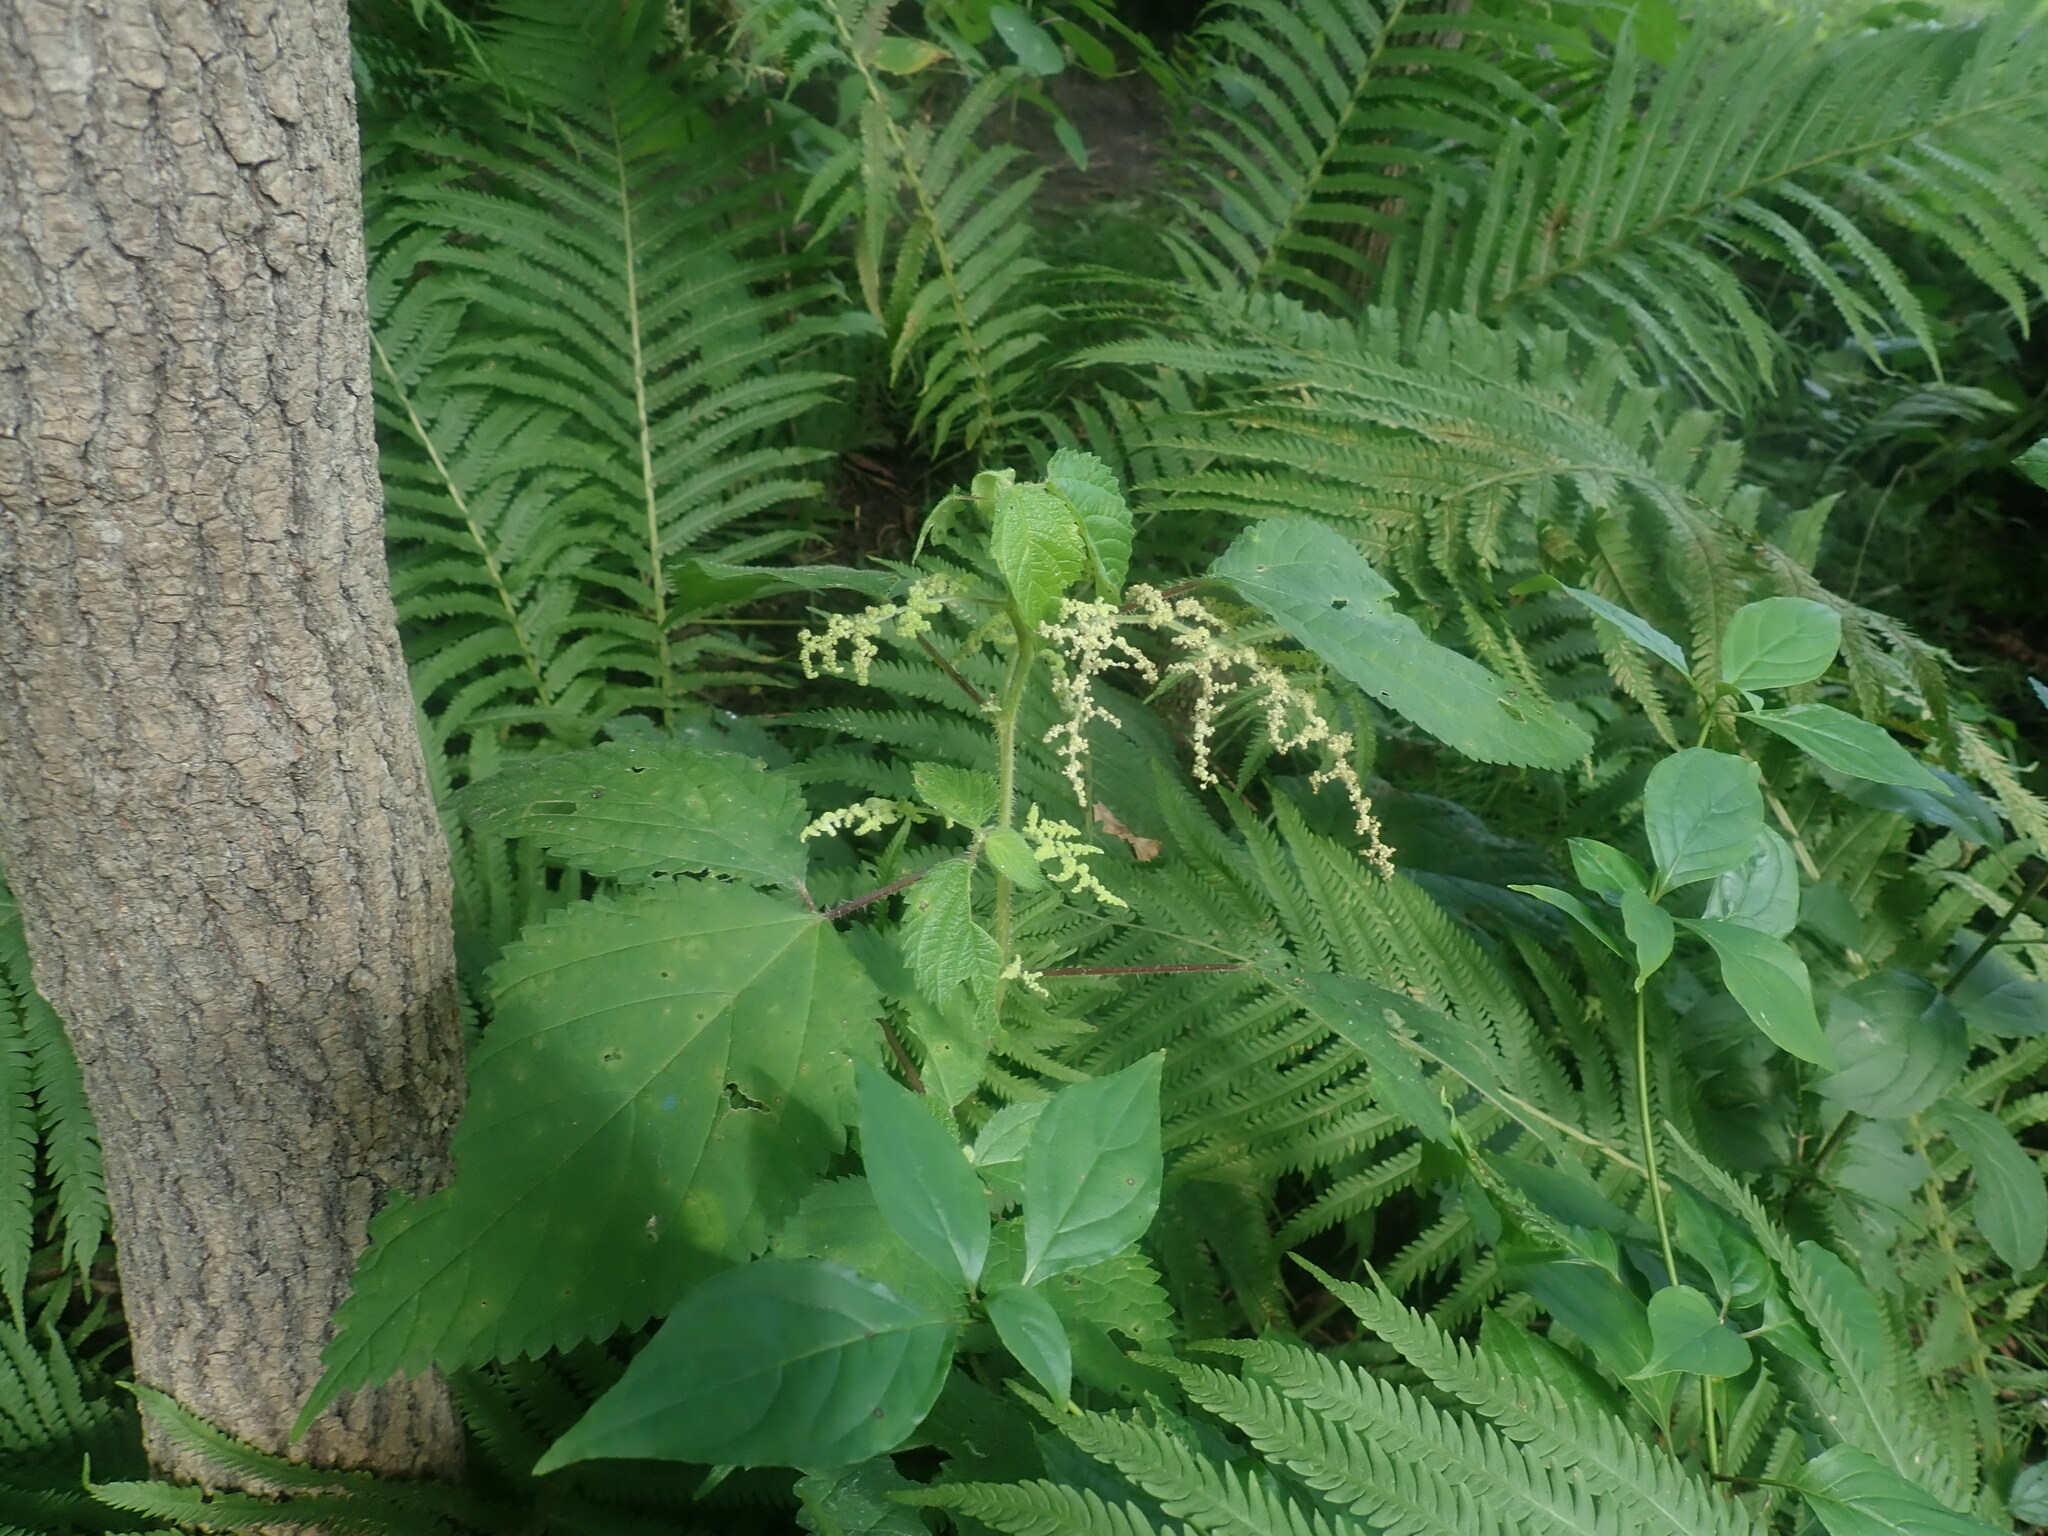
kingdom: Plantae
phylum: Tracheophyta
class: Magnoliopsida
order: Rosales
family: Urticaceae
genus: Laportea
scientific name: Laportea canadensis
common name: Canada nettle
